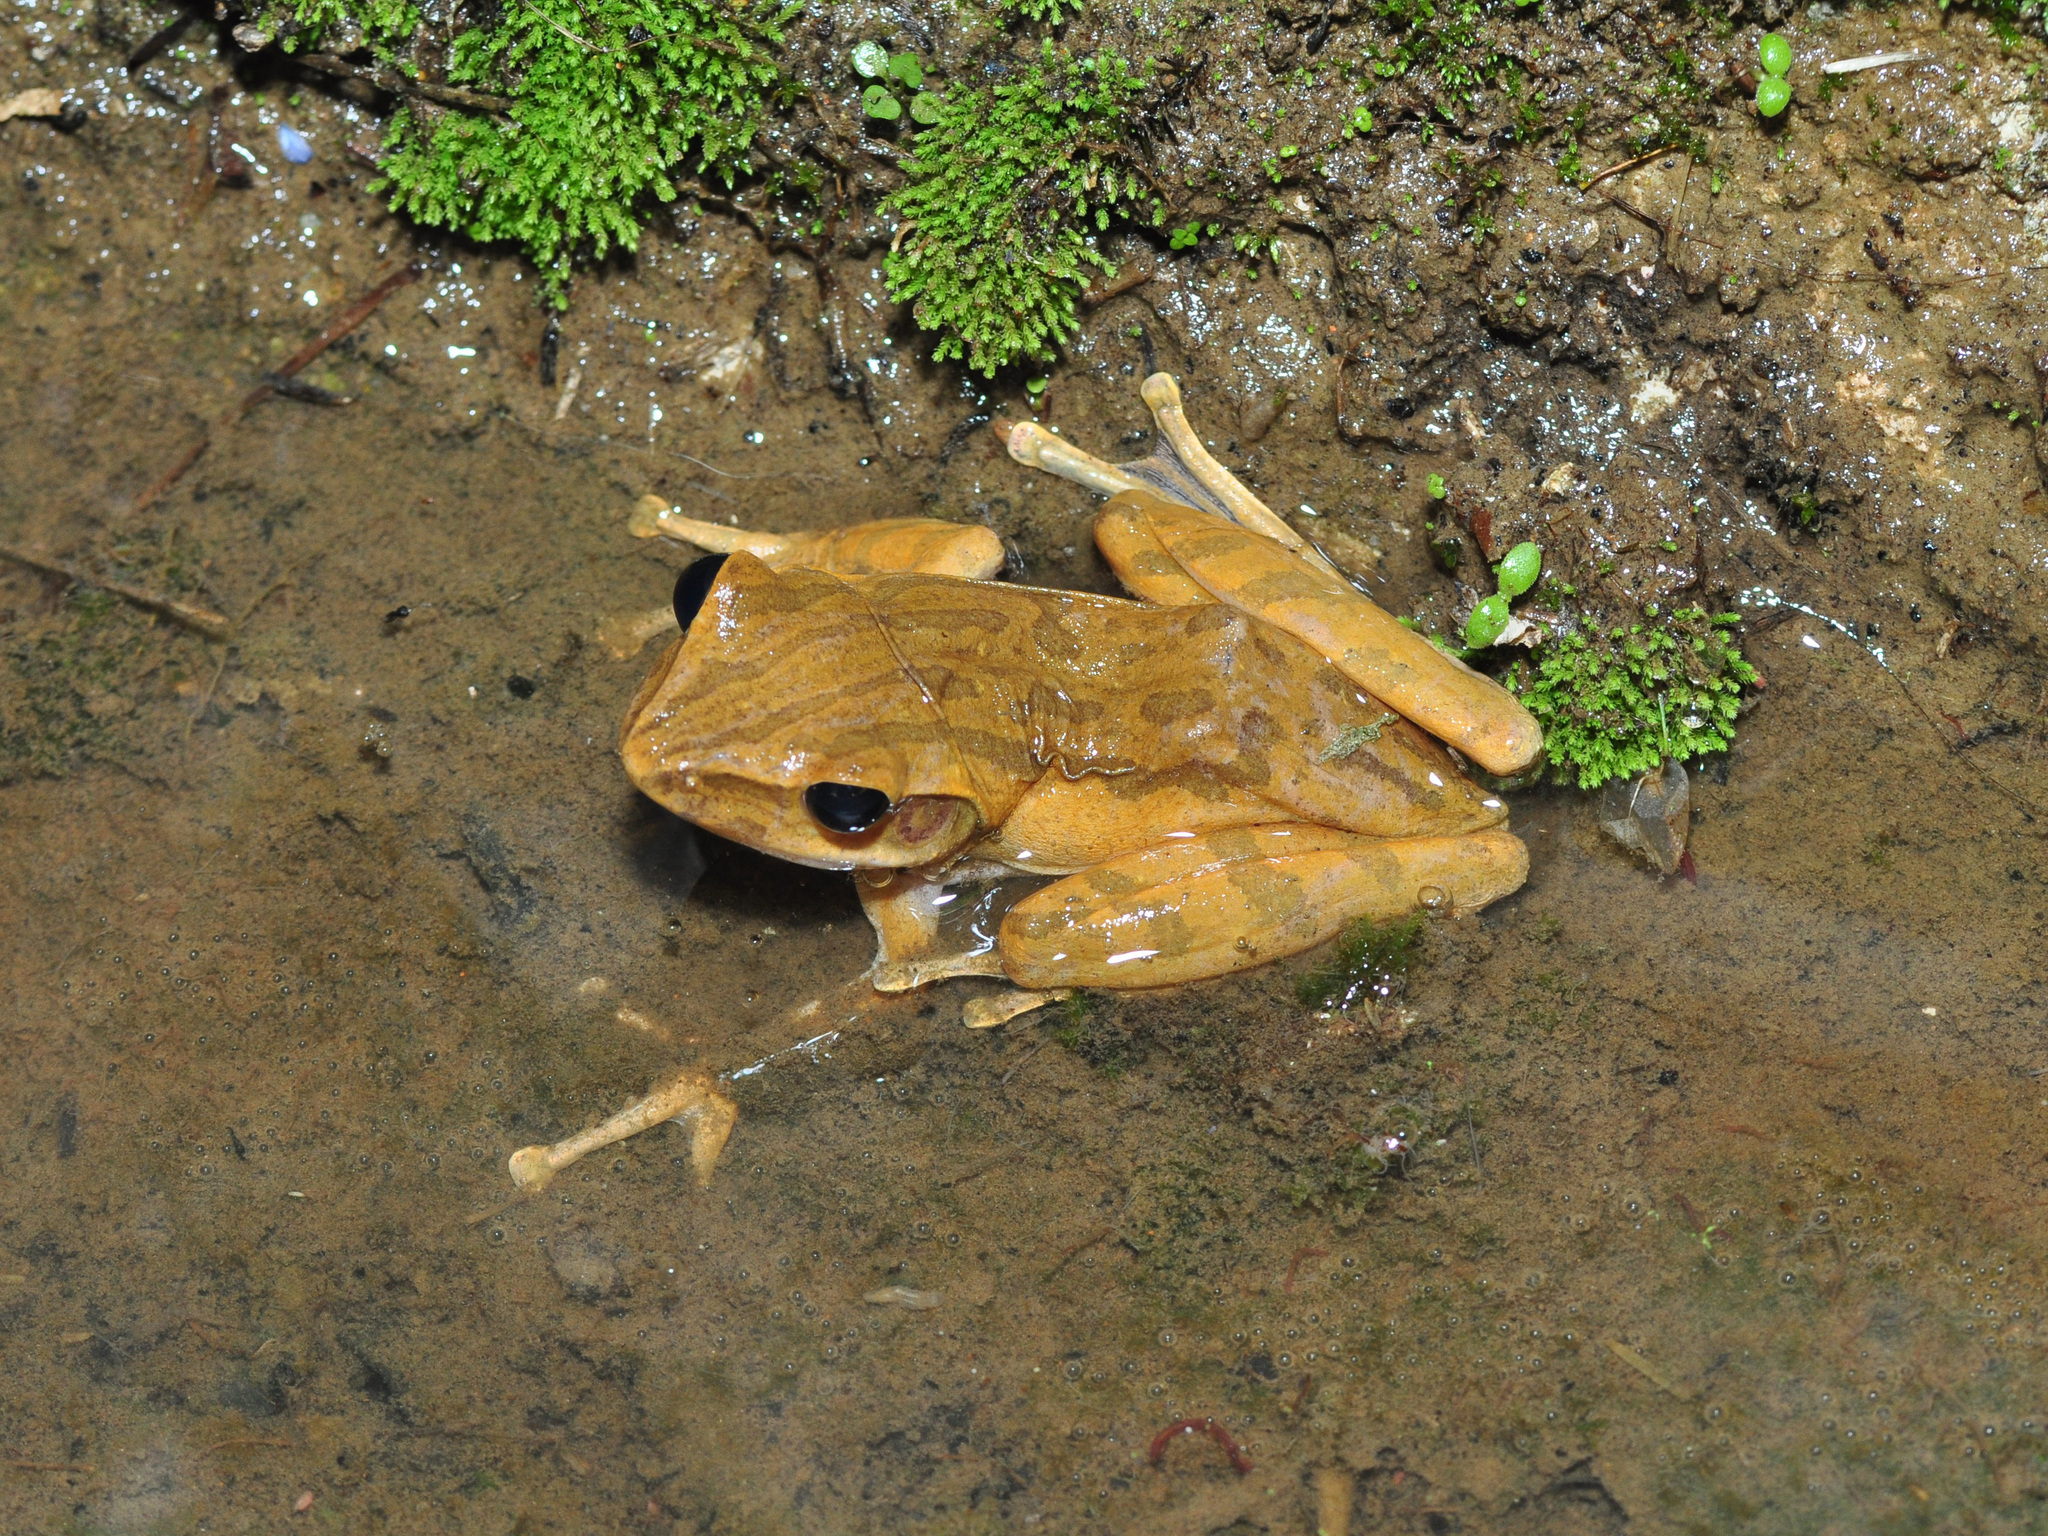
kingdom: Animalia
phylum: Chordata
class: Amphibia
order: Anura
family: Rhacophoridae
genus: Polypedates
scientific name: Polypedates leucomystax
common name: Common tree frog/four-lined tree frog
